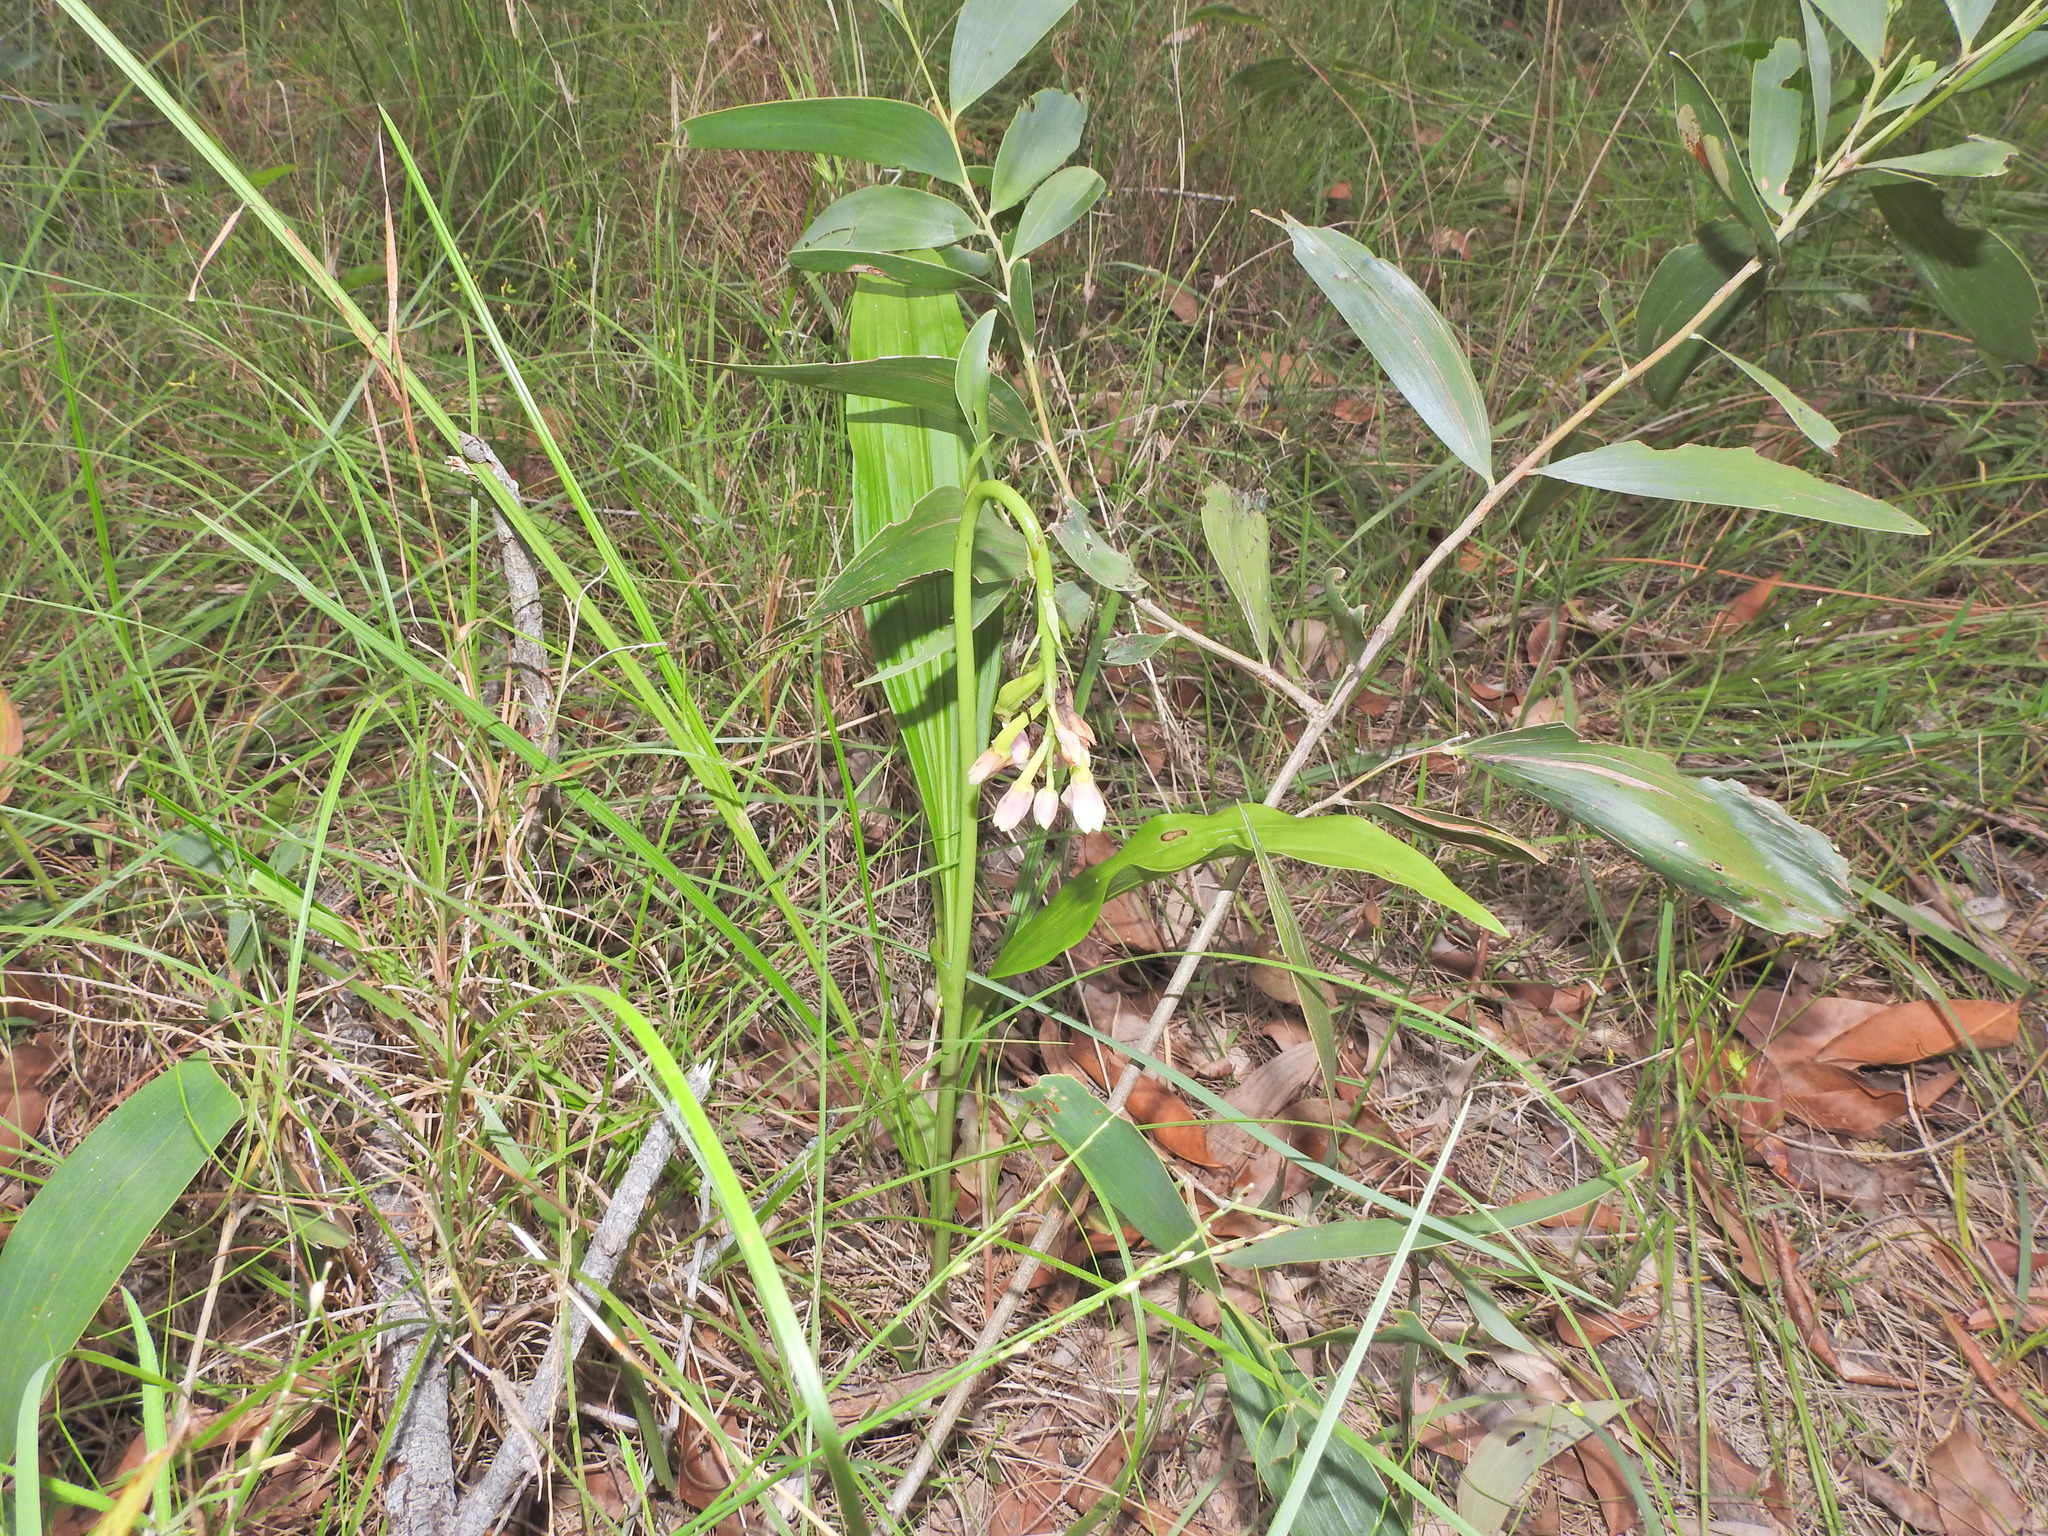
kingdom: Plantae
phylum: Tracheophyta
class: Liliopsida
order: Asparagales
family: Orchidaceae
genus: Eulophia
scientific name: Eulophia cernua
